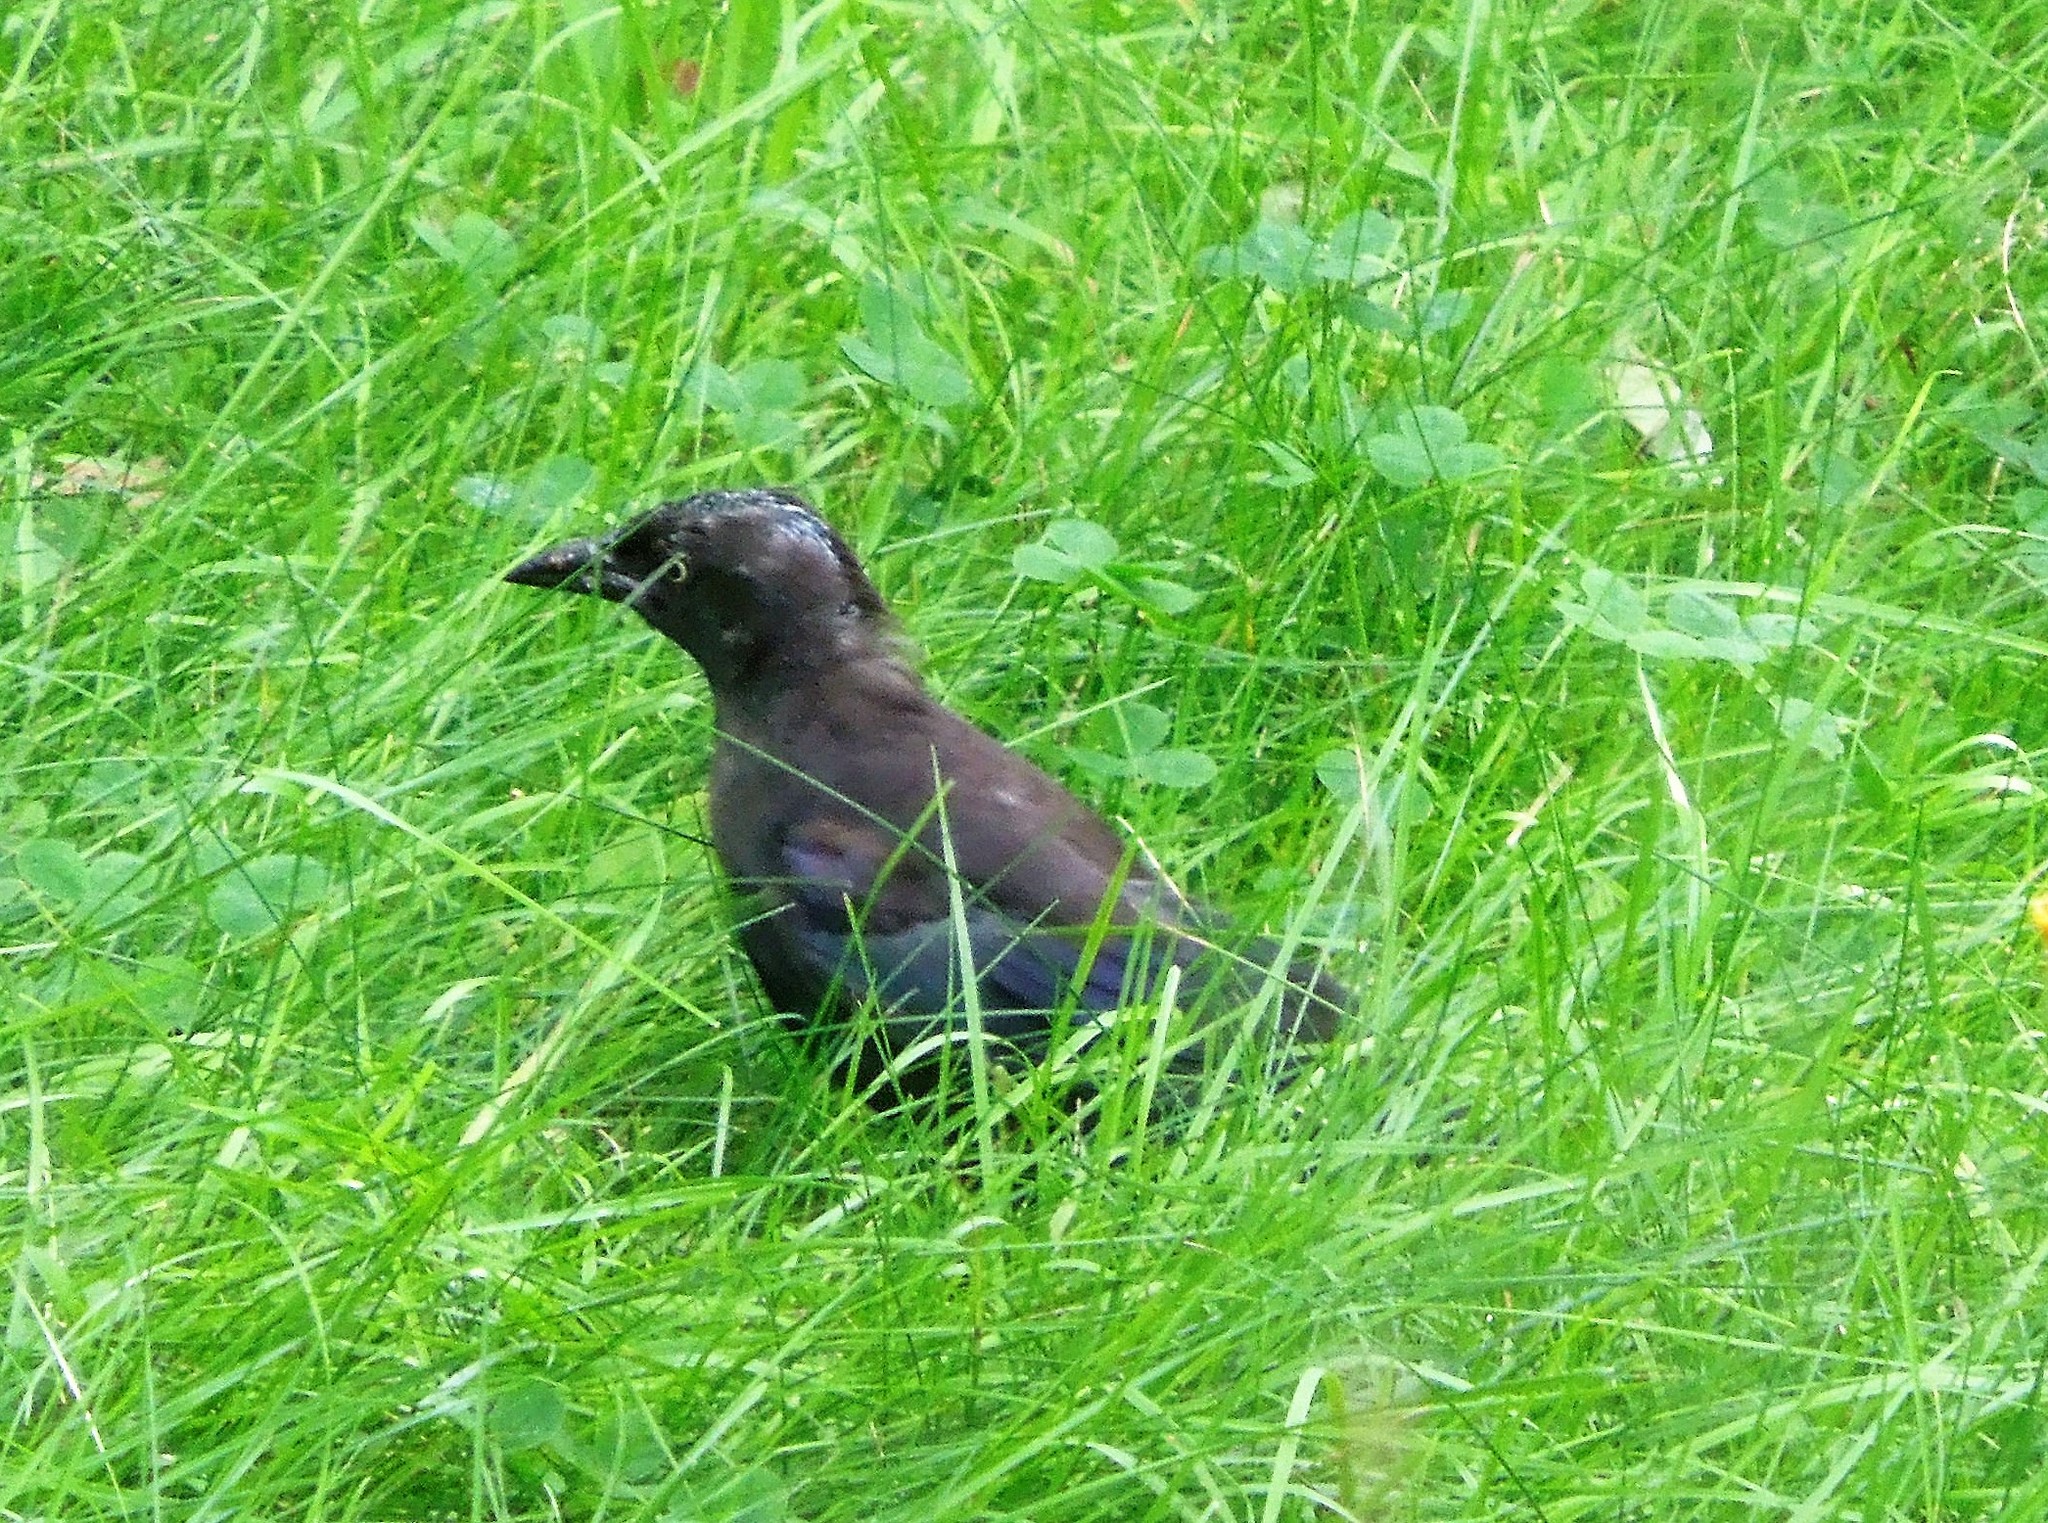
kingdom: Animalia
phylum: Chordata
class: Aves
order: Passeriformes
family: Icteridae
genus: Quiscalus
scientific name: Quiscalus quiscula
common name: Common grackle
